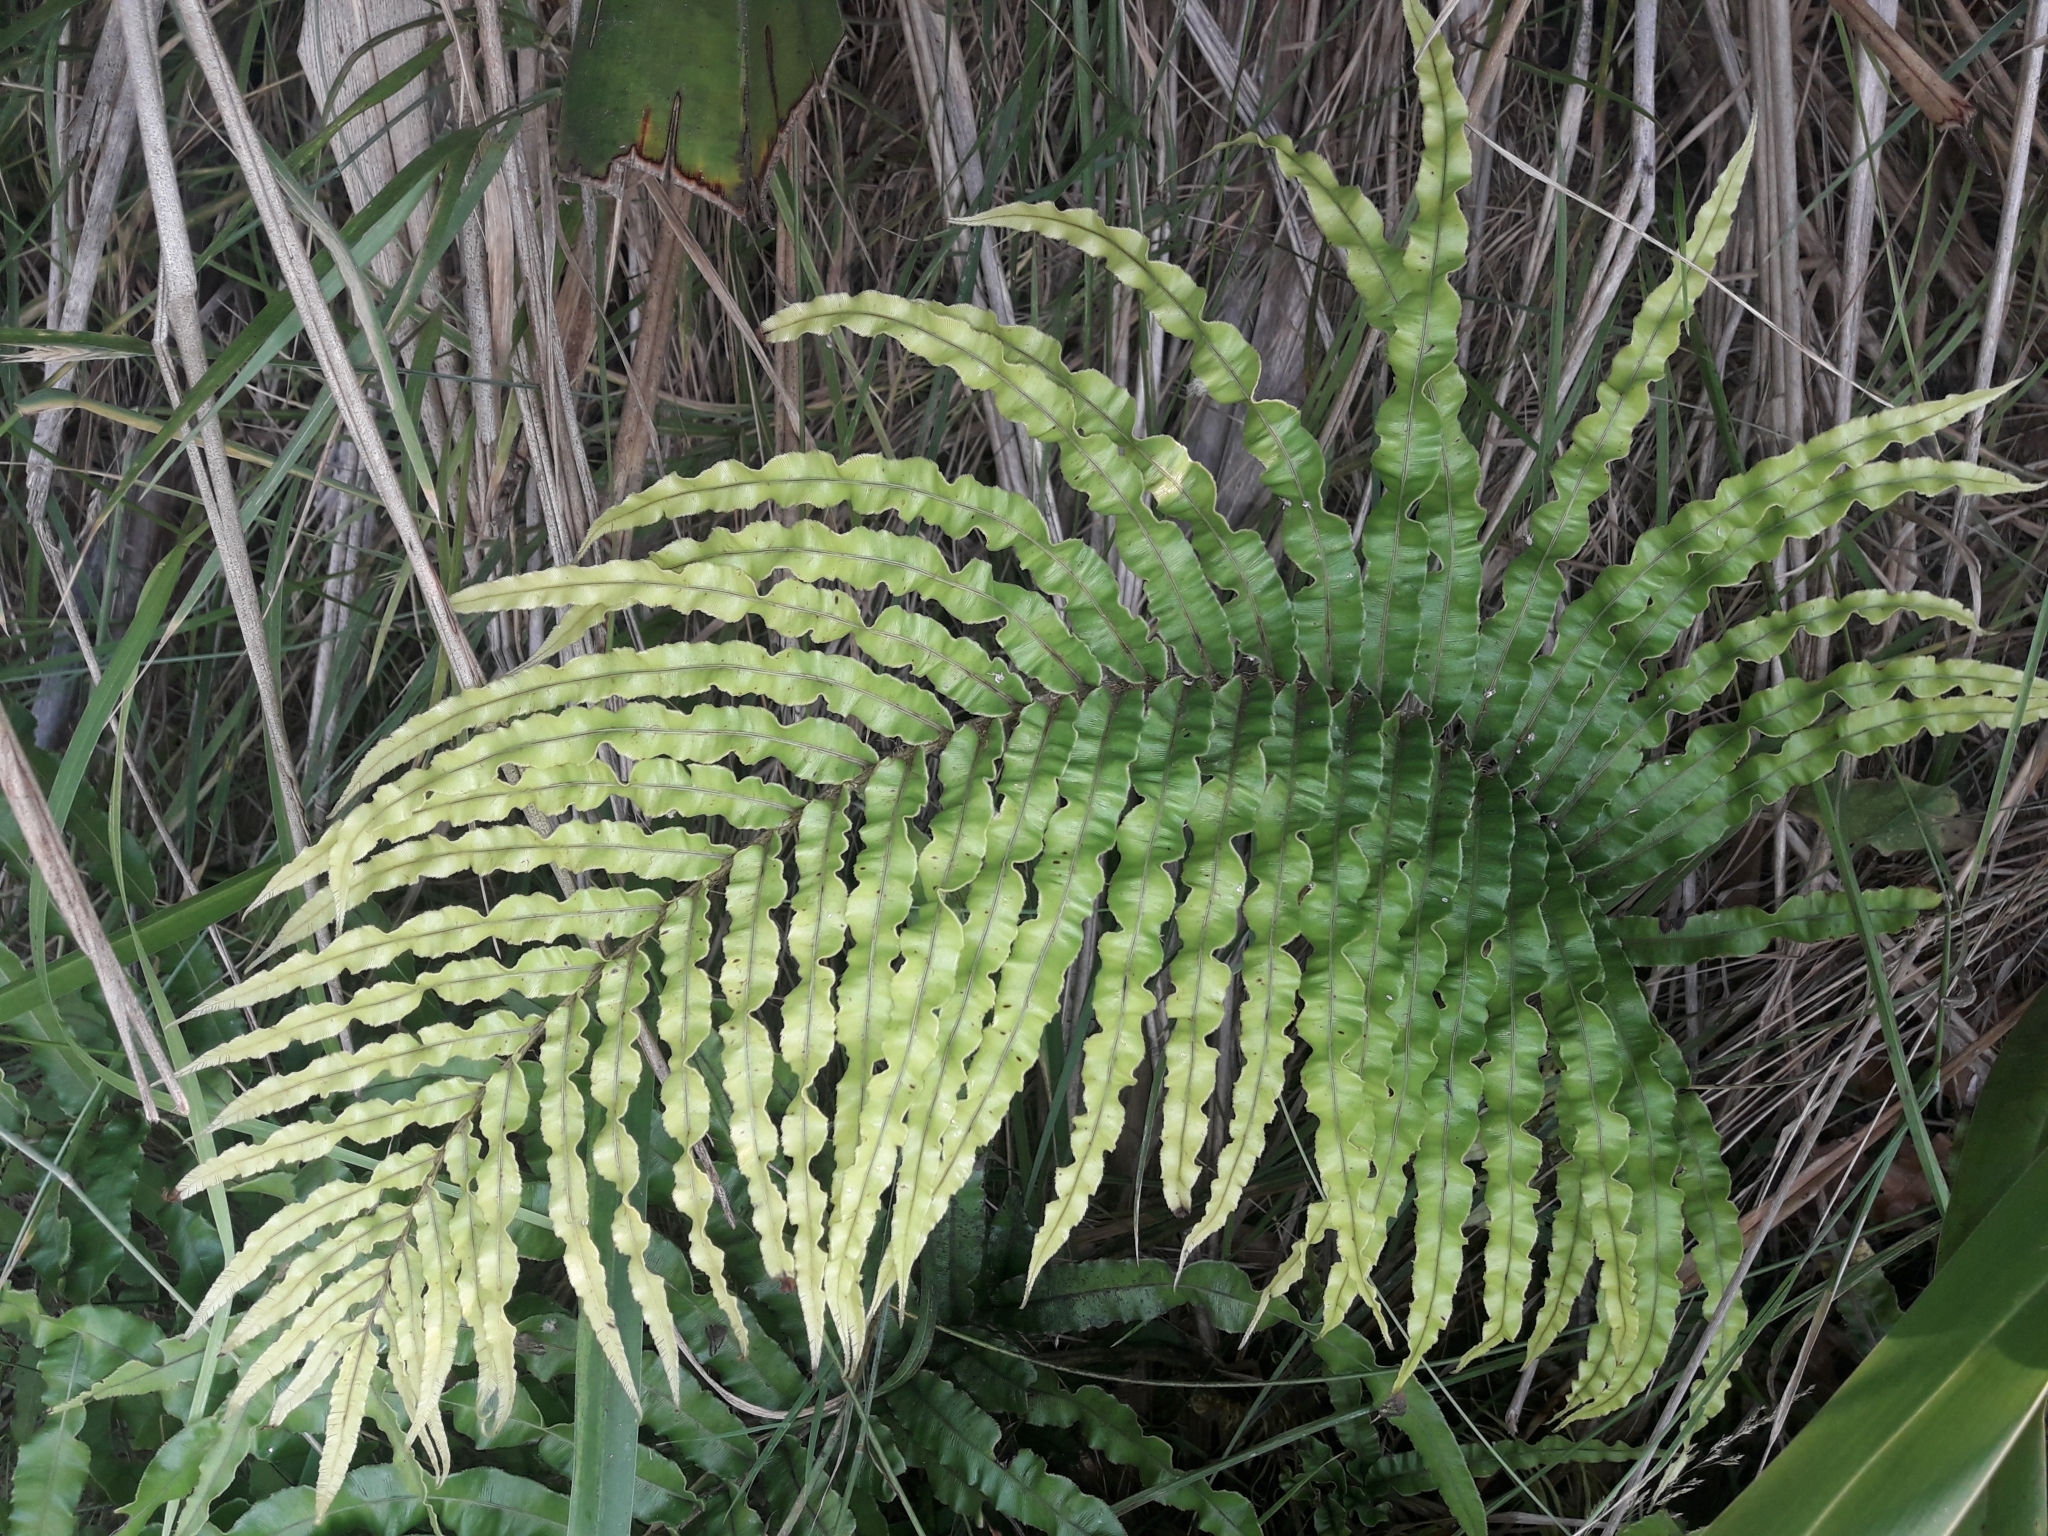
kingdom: Plantae
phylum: Tracheophyta
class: Polypodiopsida
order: Polypodiales
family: Blechnaceae
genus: Parablechnum
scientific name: Parablechnum triangularifolium
